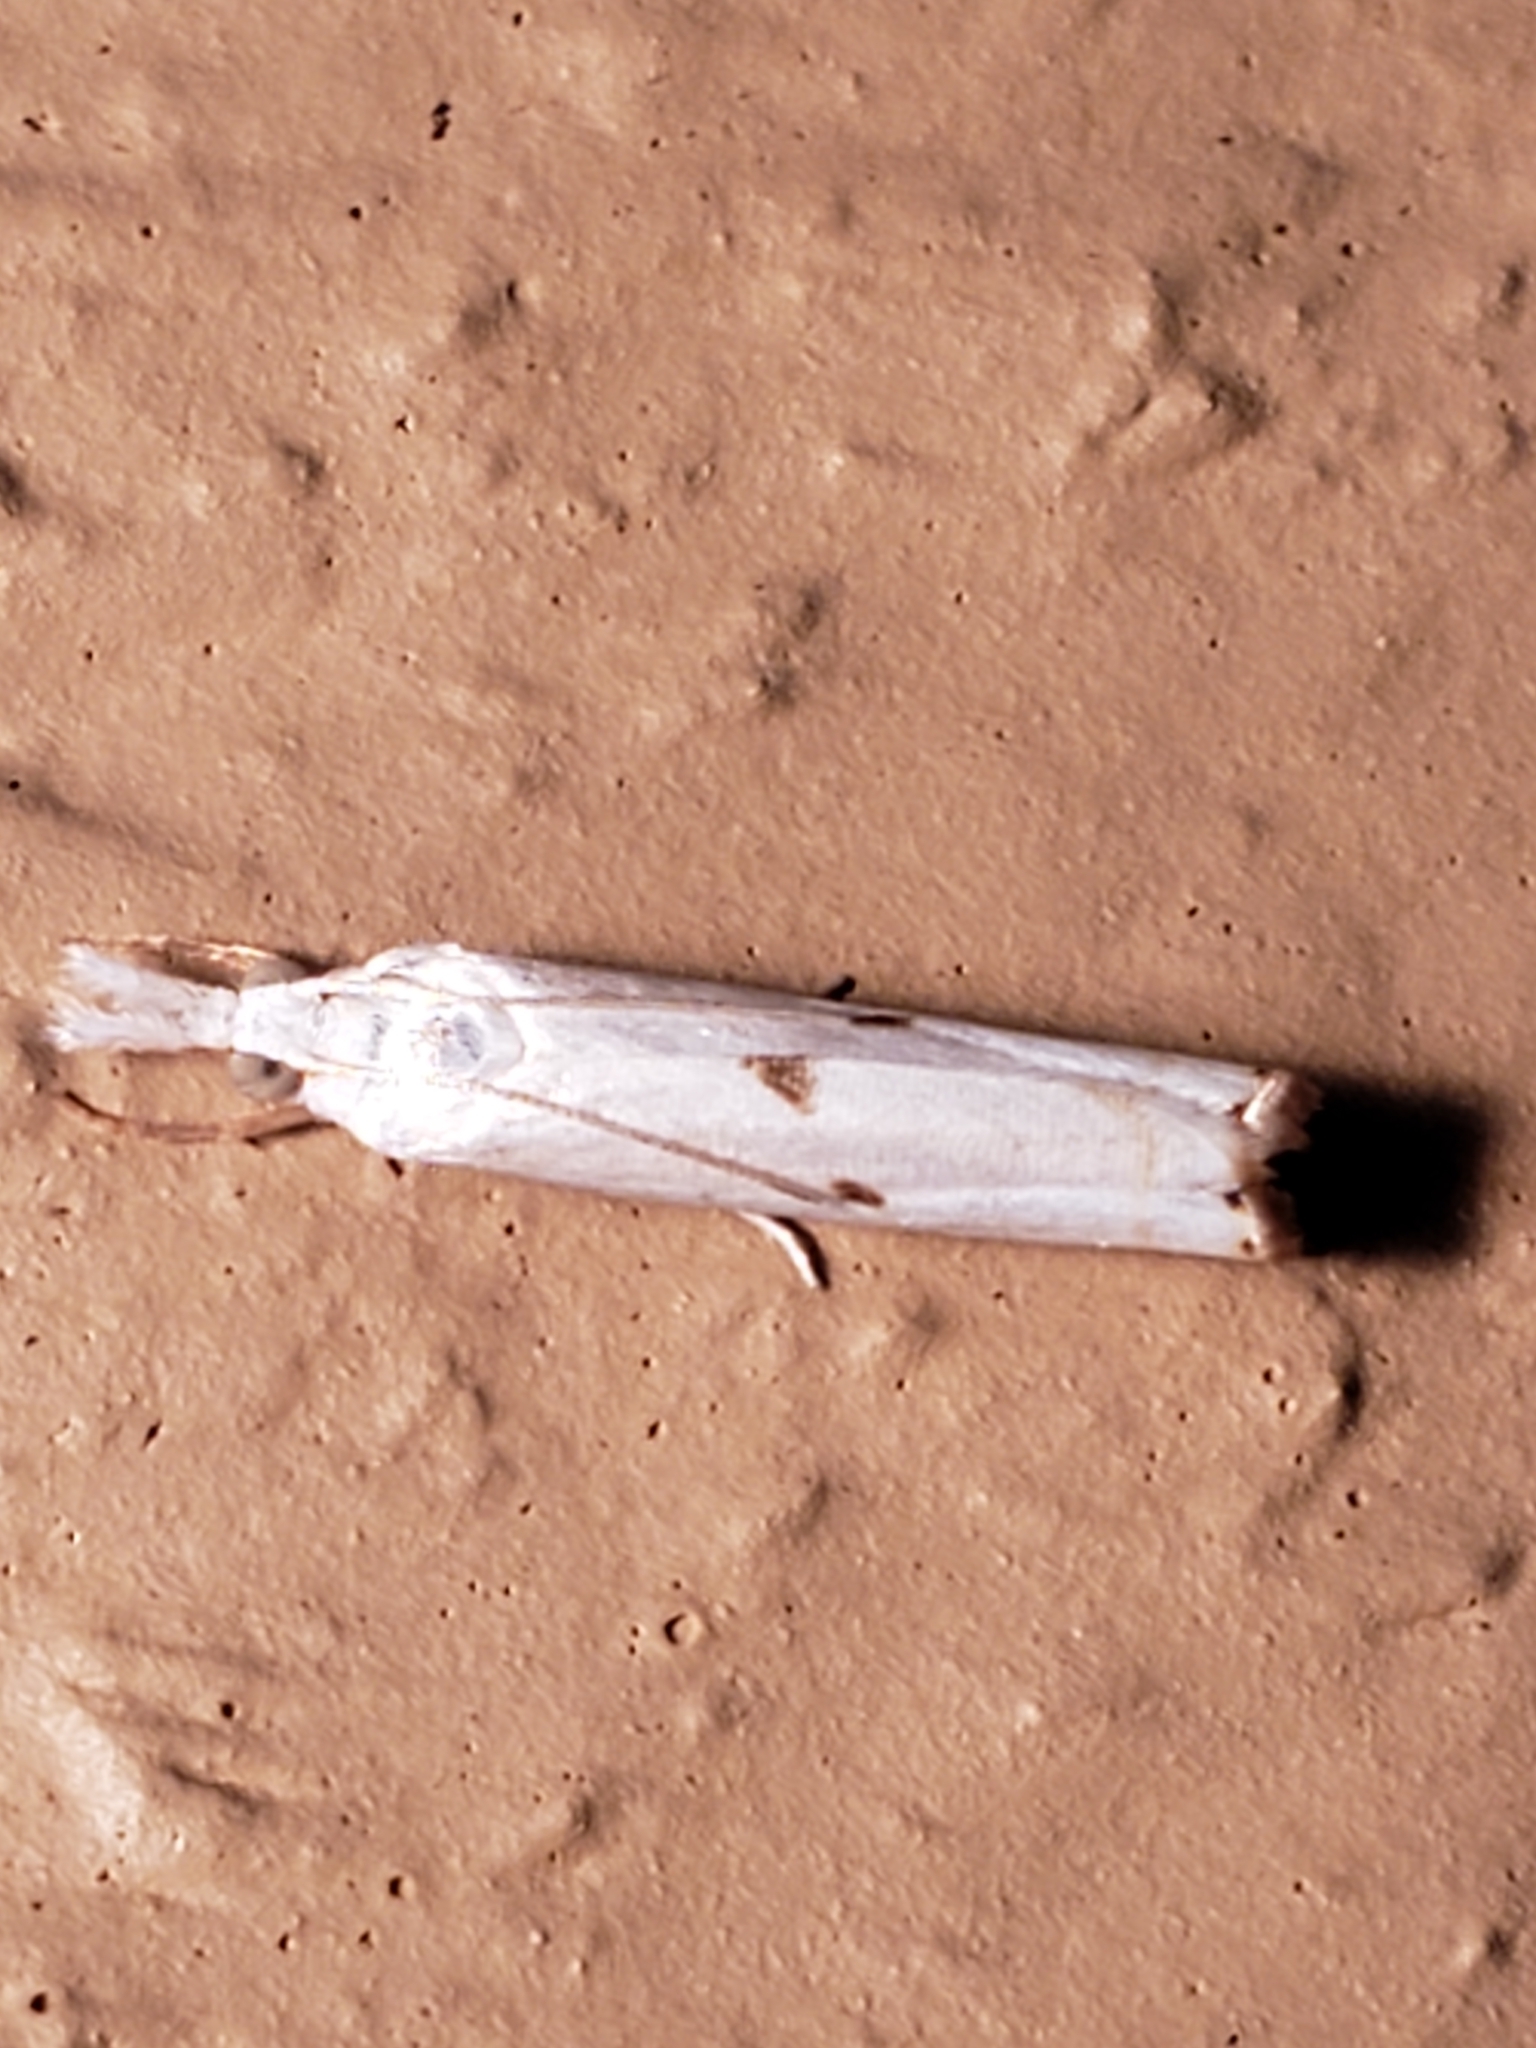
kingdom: Animalia
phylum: Arthropoda
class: Insecta
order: Lepidoptera
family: Crambidae
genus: Microcrambus
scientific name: Microcrambus biguttellus
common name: Gold-stripe grass-veneer moth
